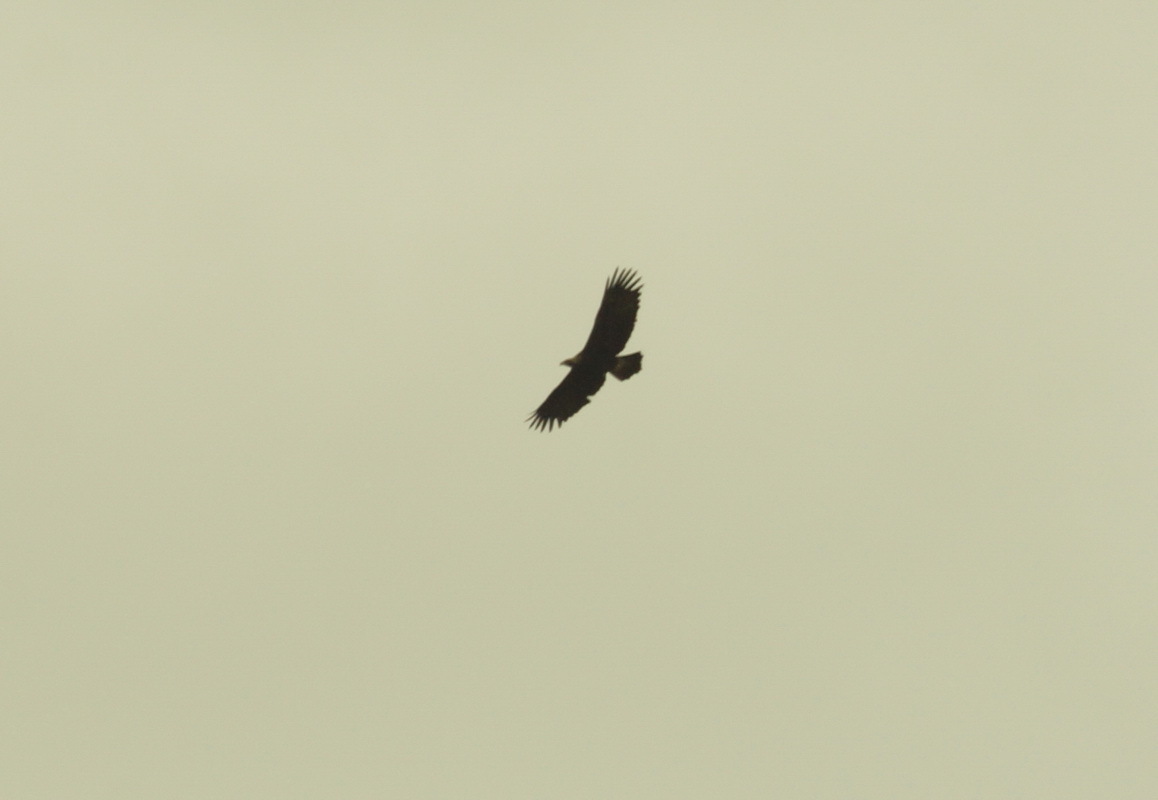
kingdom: Animalia
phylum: Chordata
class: Aves
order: Accipitriformes
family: Accipitridae
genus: Aquila
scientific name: Aquila heliaca
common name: Eastern imperial eagle
